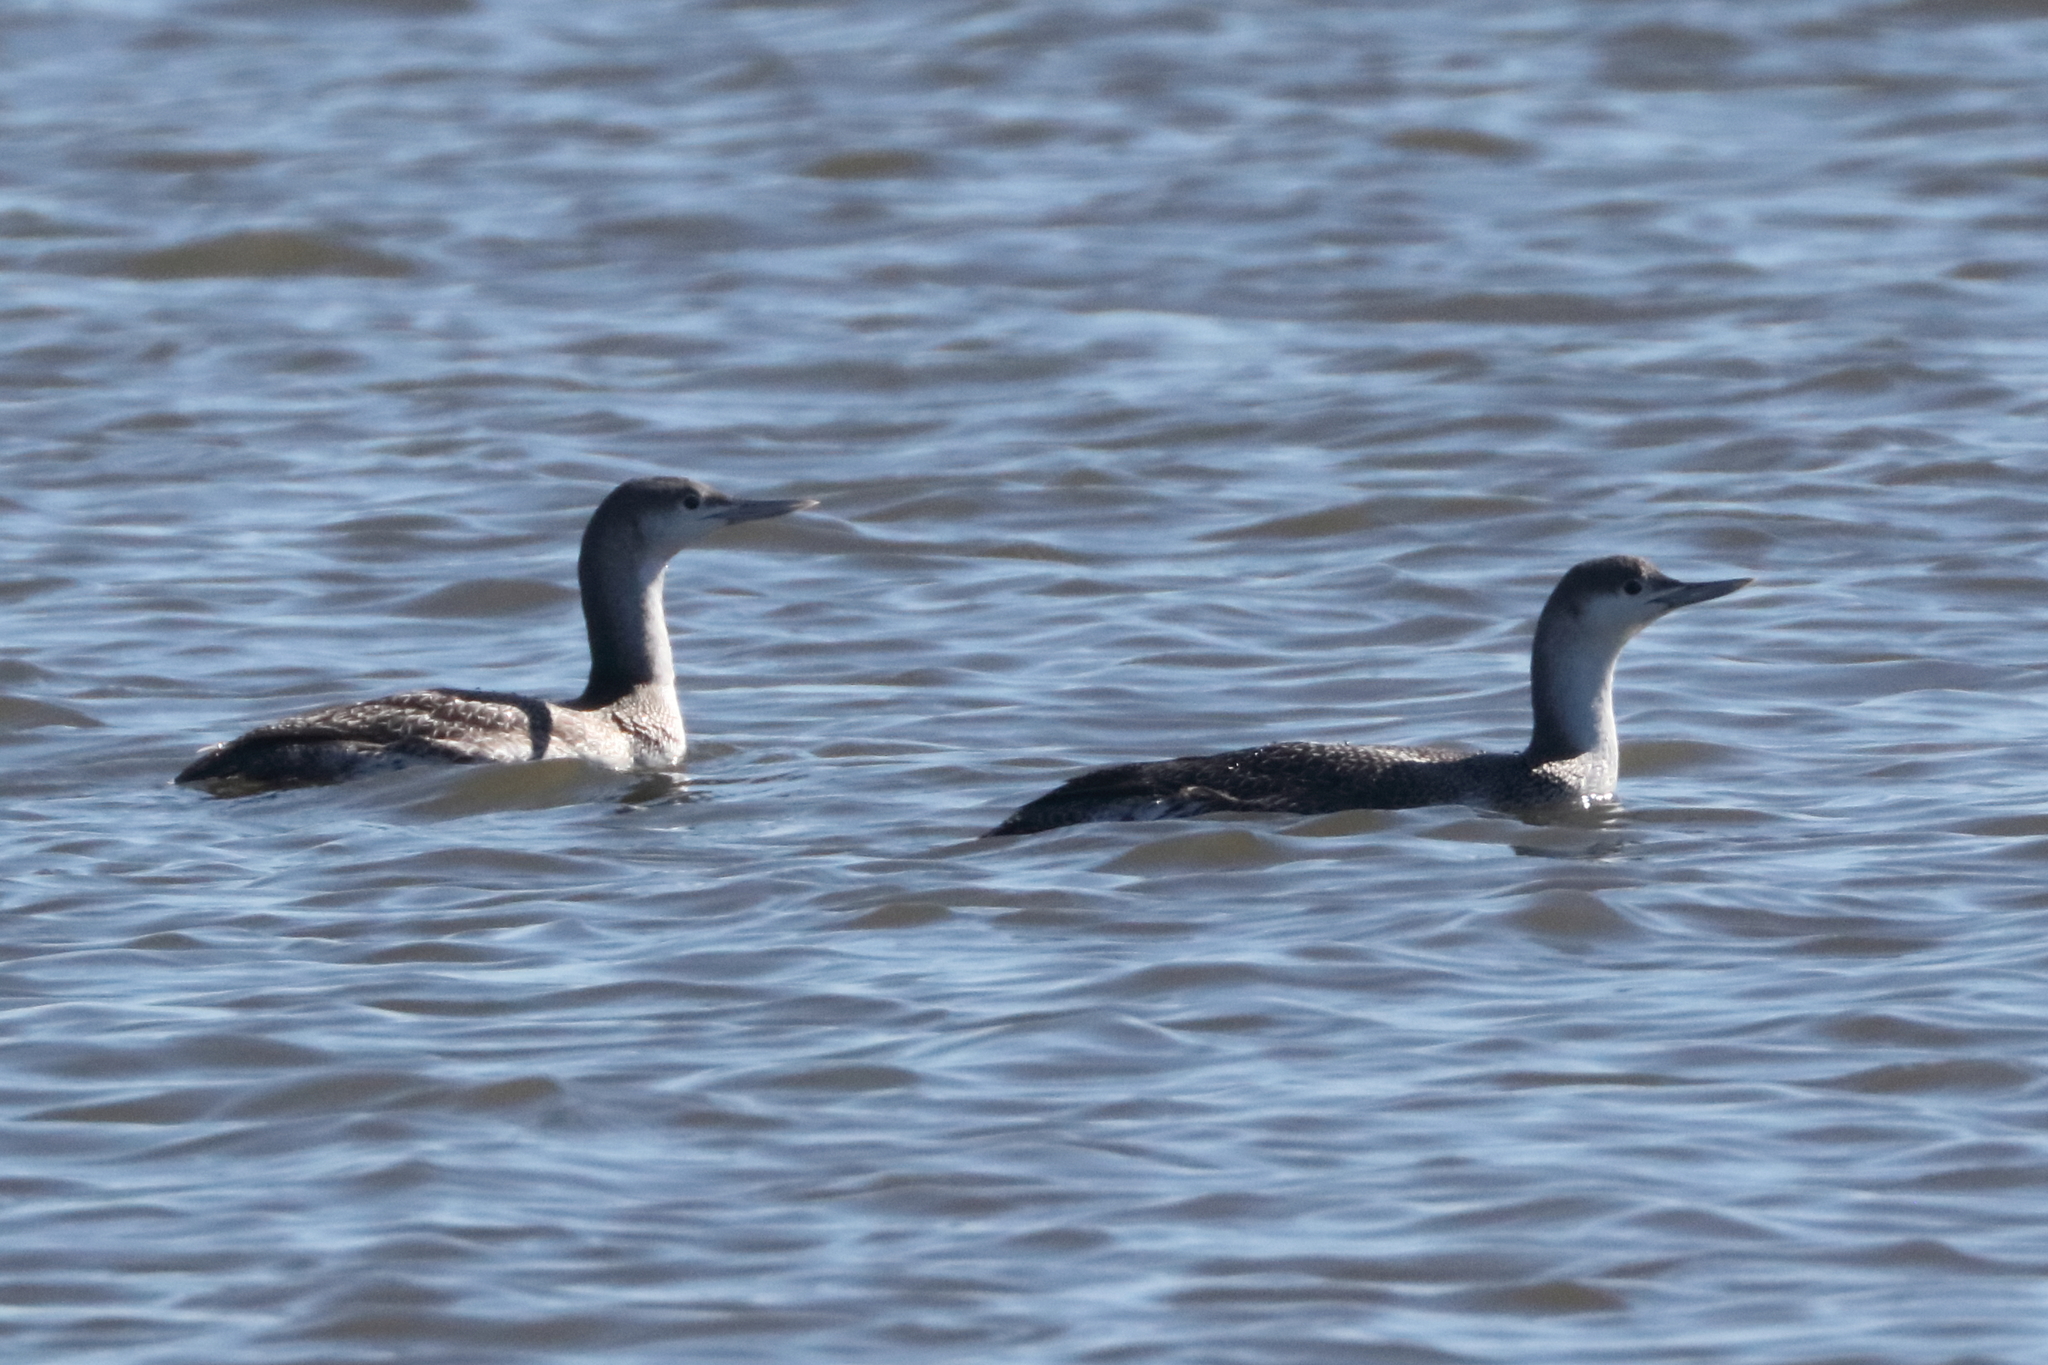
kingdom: Animalia
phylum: Chordata
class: Aves
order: Gaviiformes
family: Gaviidae
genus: Gavia
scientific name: Gavia stellata
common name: Red-throated loon
